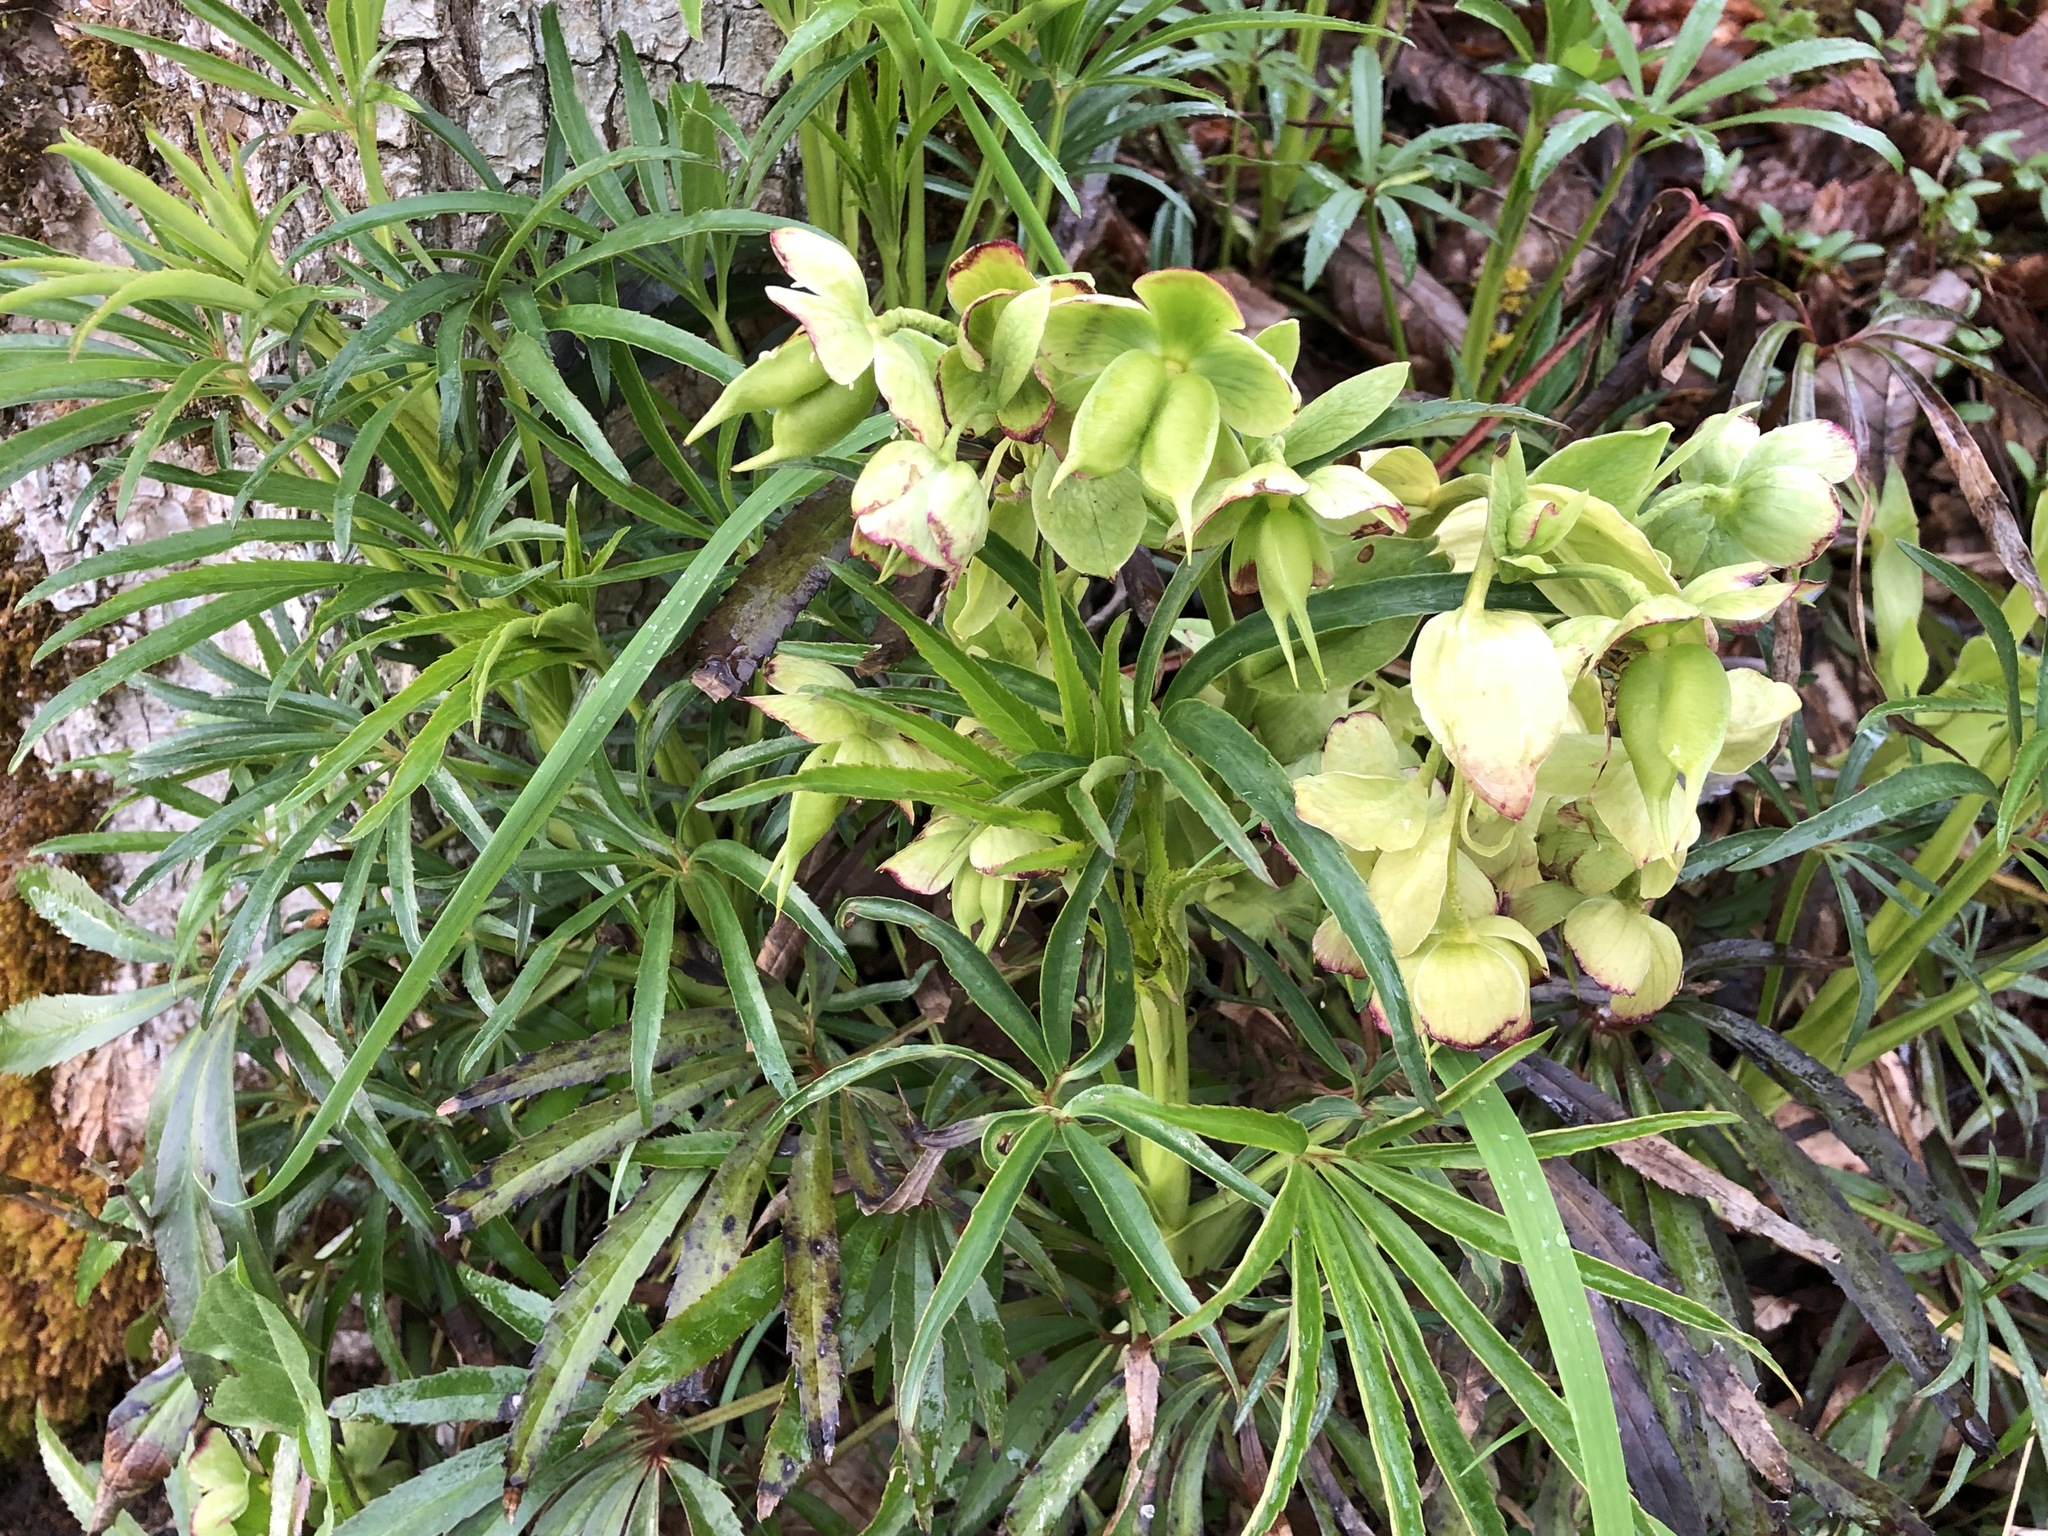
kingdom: Plantae
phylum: Tracheophyta
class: Magnoliopsida
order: Ranunculales
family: Ranunculaceae
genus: Helleborus
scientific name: Helleborus foetidus
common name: Stinking hellebore
